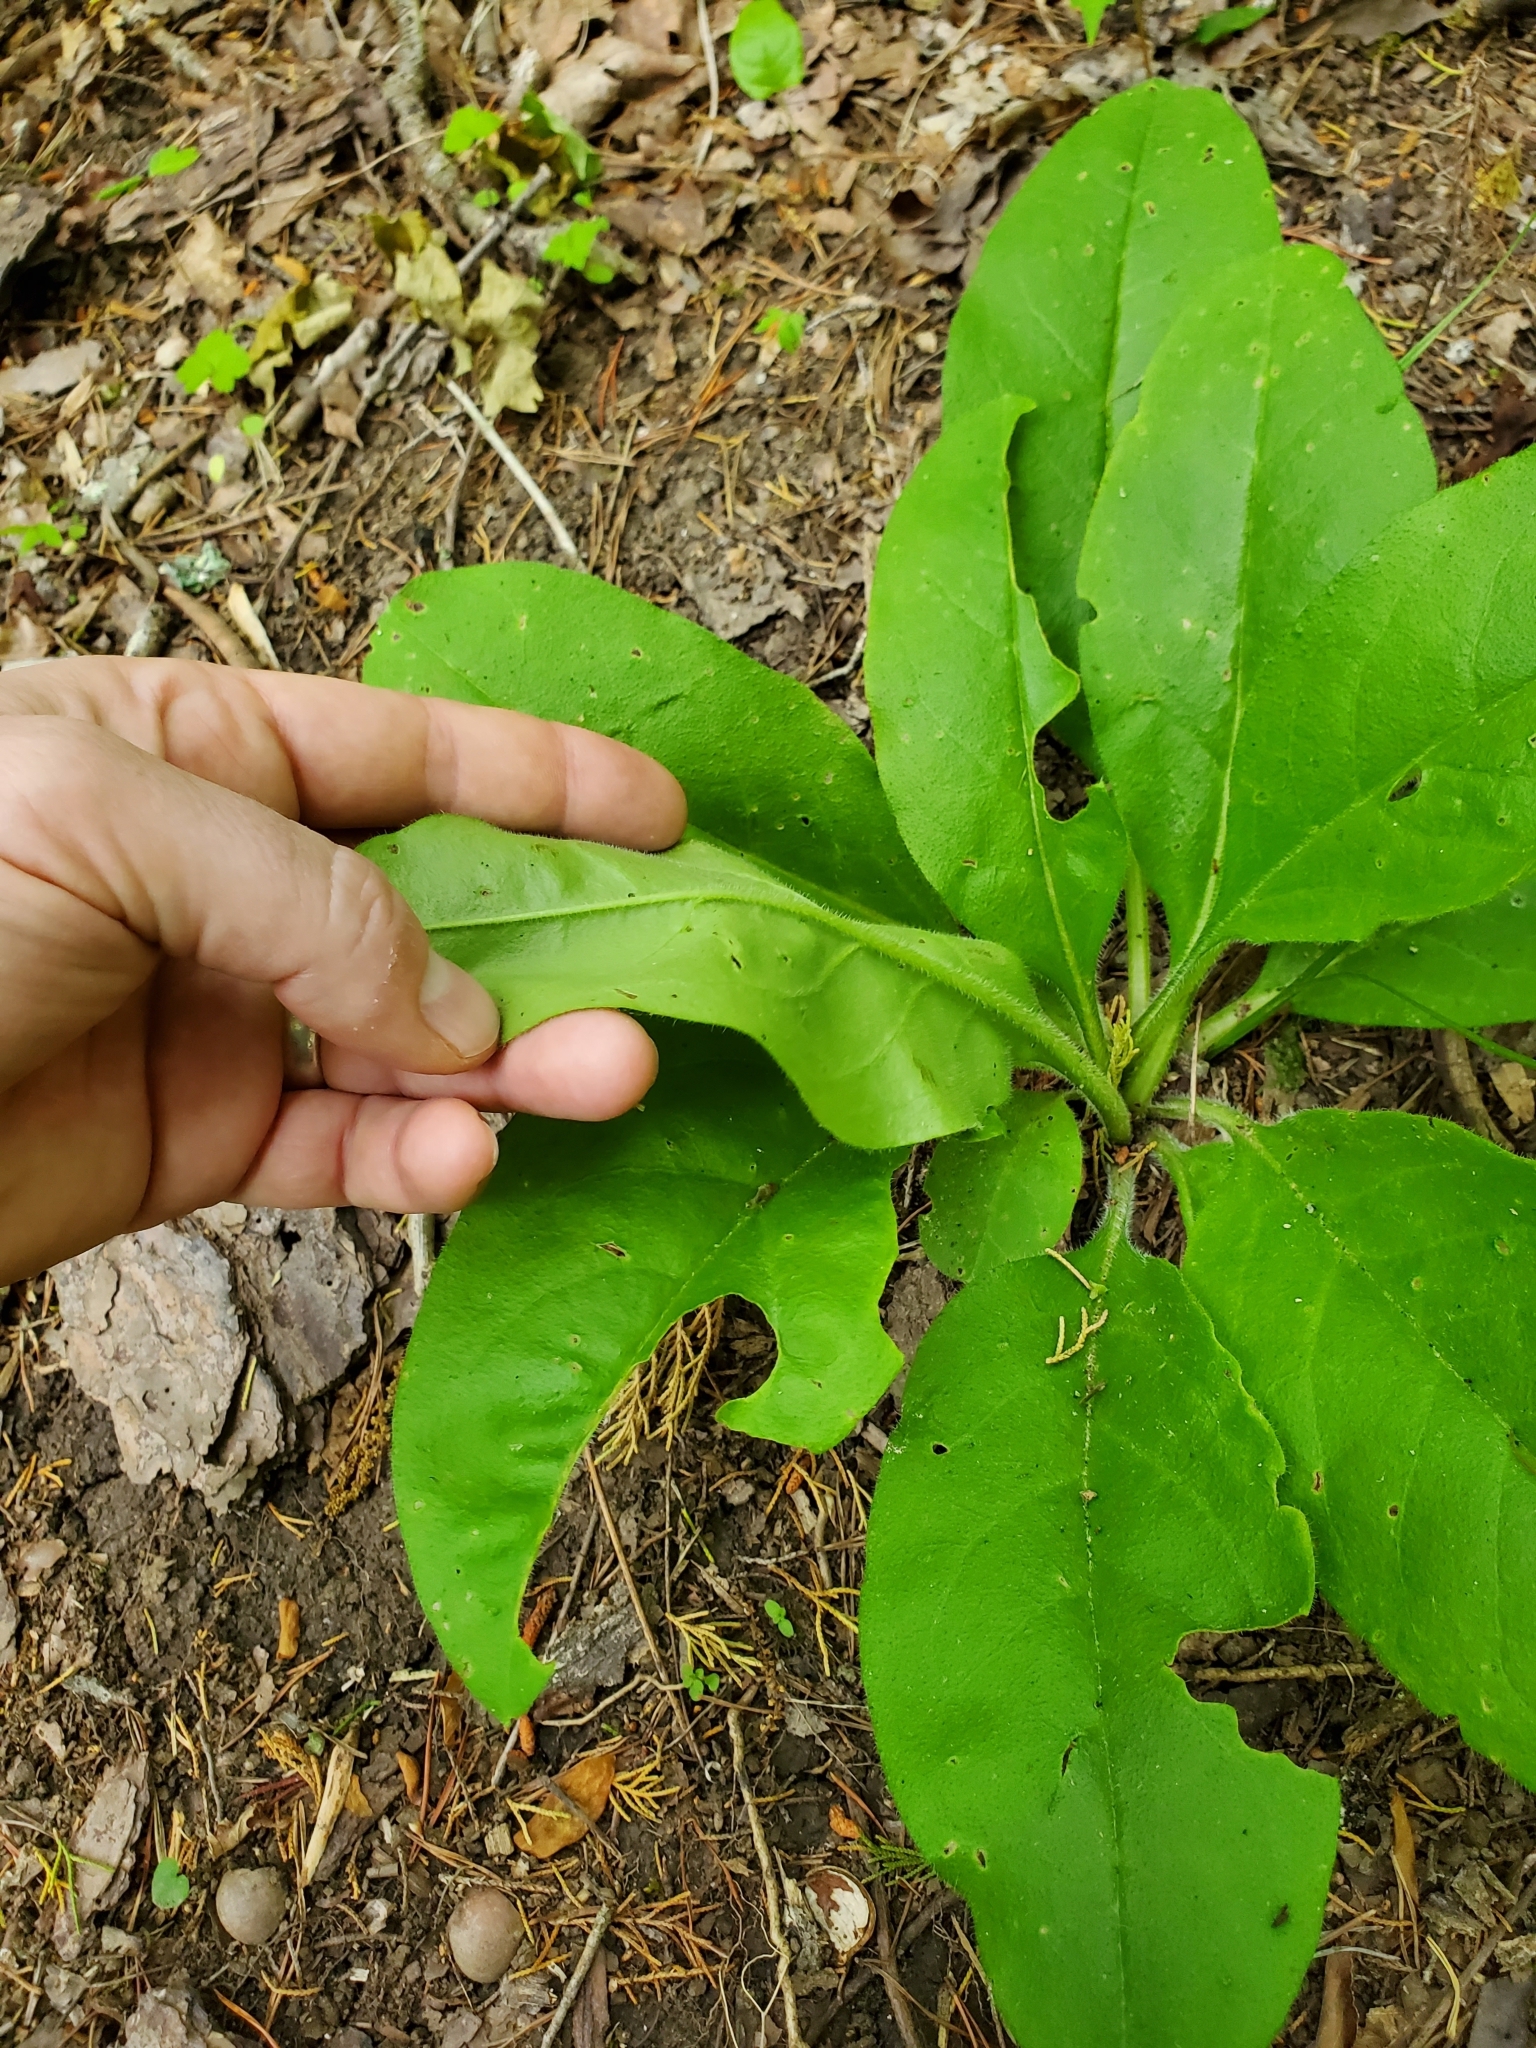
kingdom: Plantae
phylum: Tracheophyta
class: Magnoliopsida
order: Boraginales
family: Boraginaceae
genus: Andersonglossum
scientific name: Andersonglossum virginianum
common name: Wild comfrey
